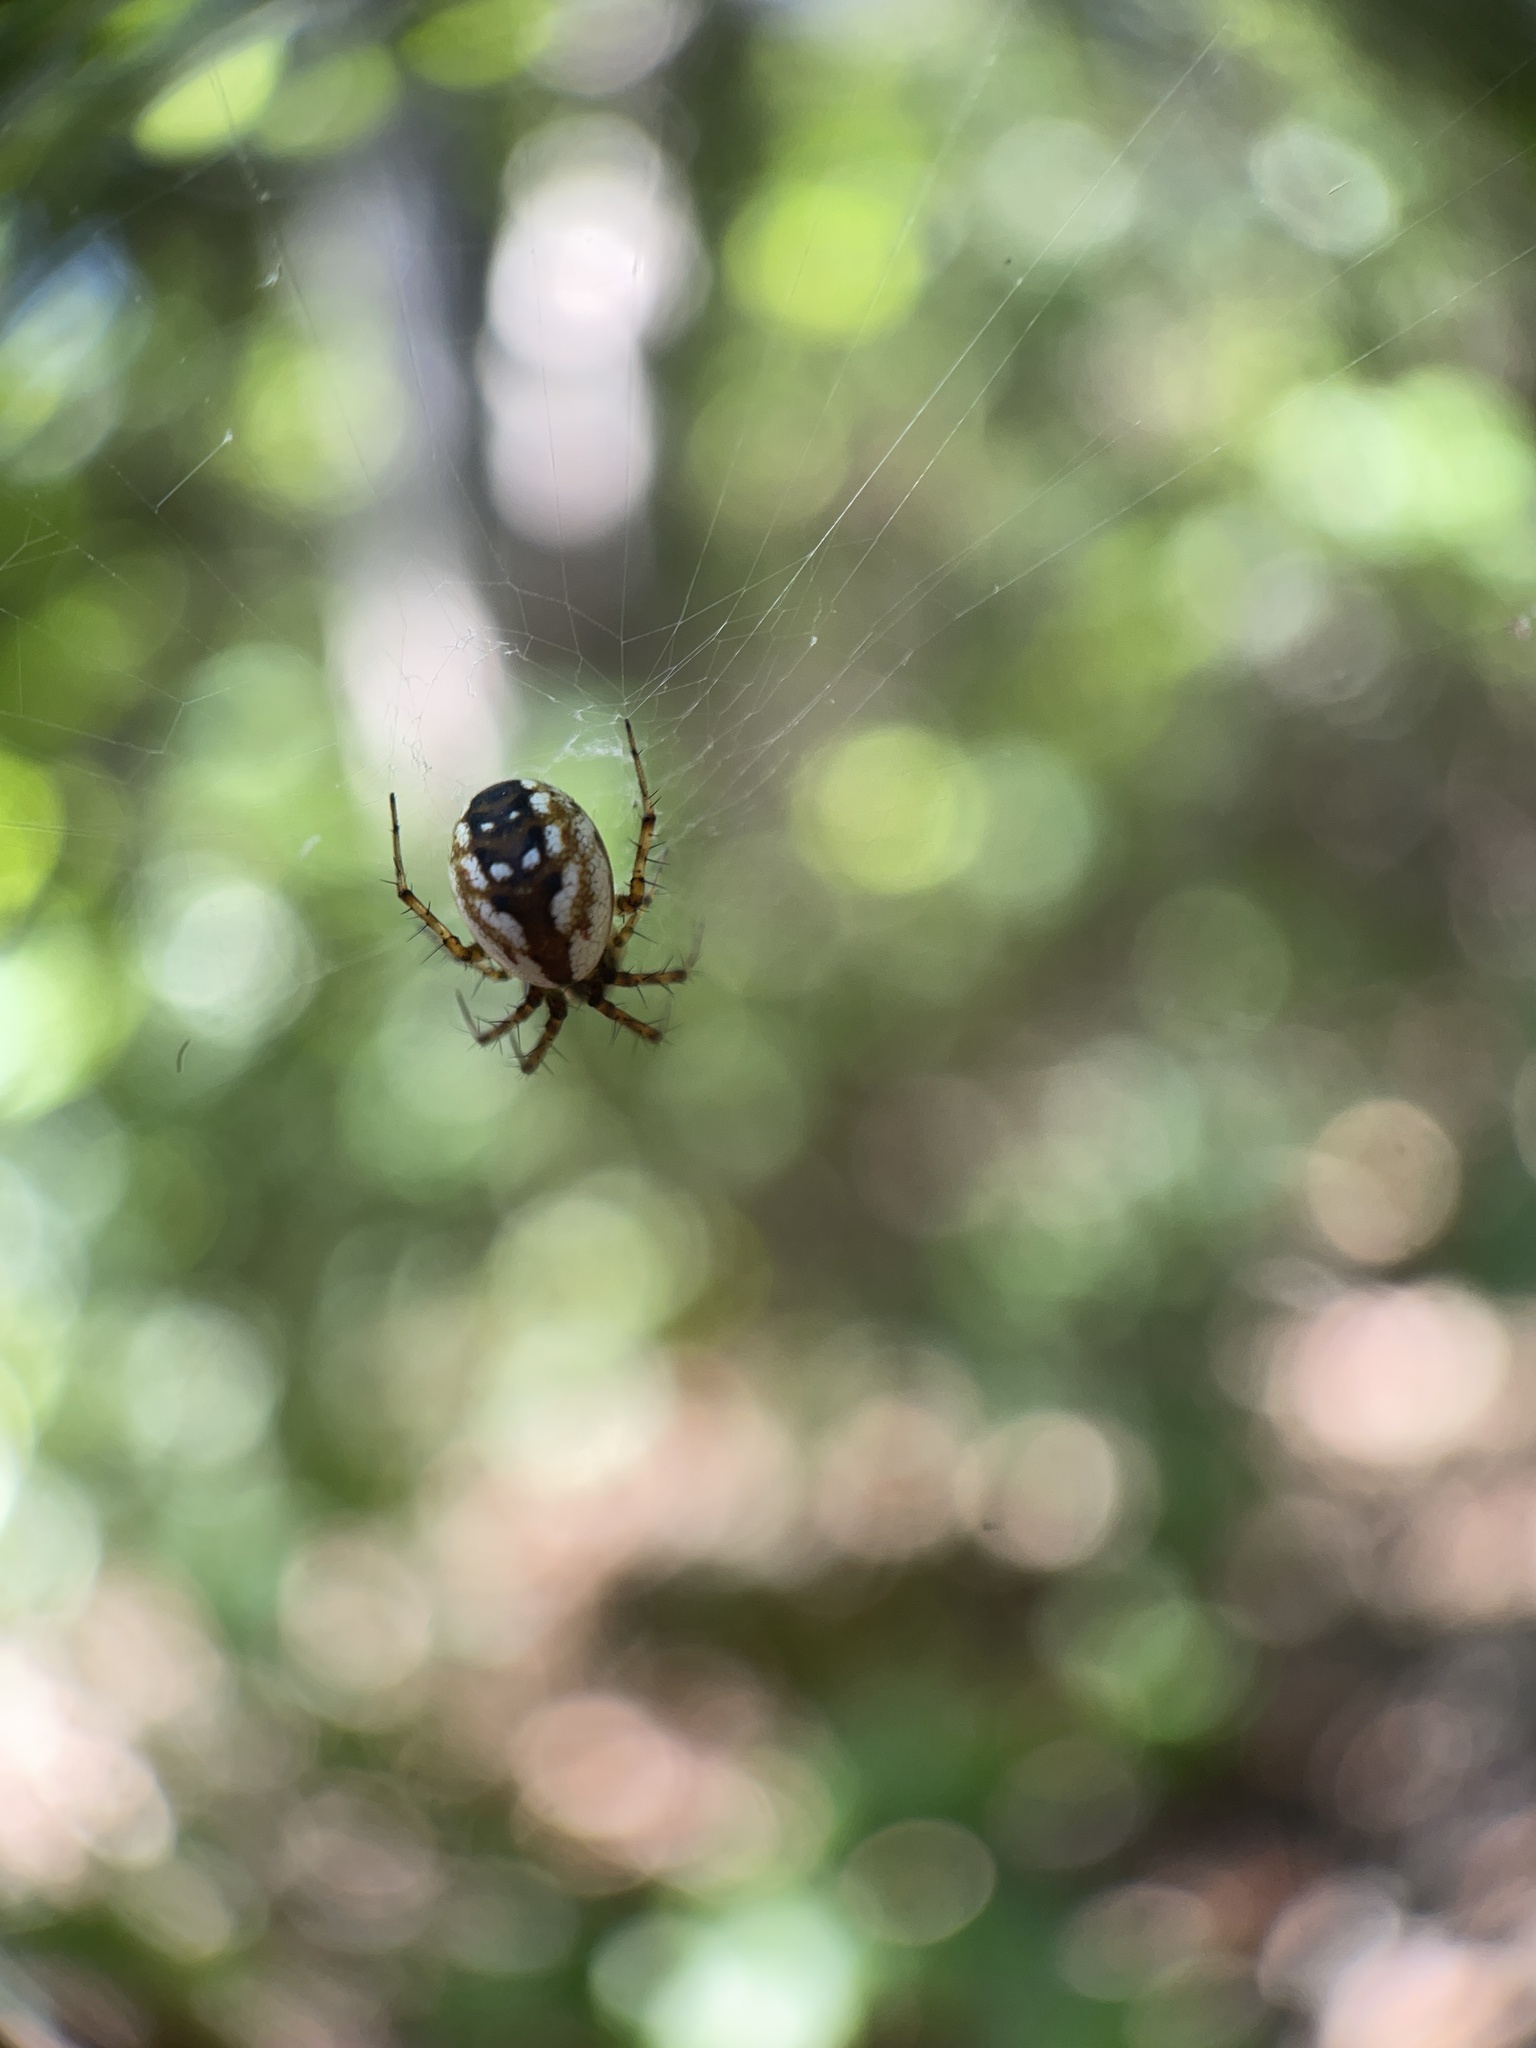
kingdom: Animalia
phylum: Arthropoda
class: Arachnida
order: Araneae
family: Araneidae
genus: Mangora
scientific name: Mangora placida
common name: Tuft-legged orbweaver
